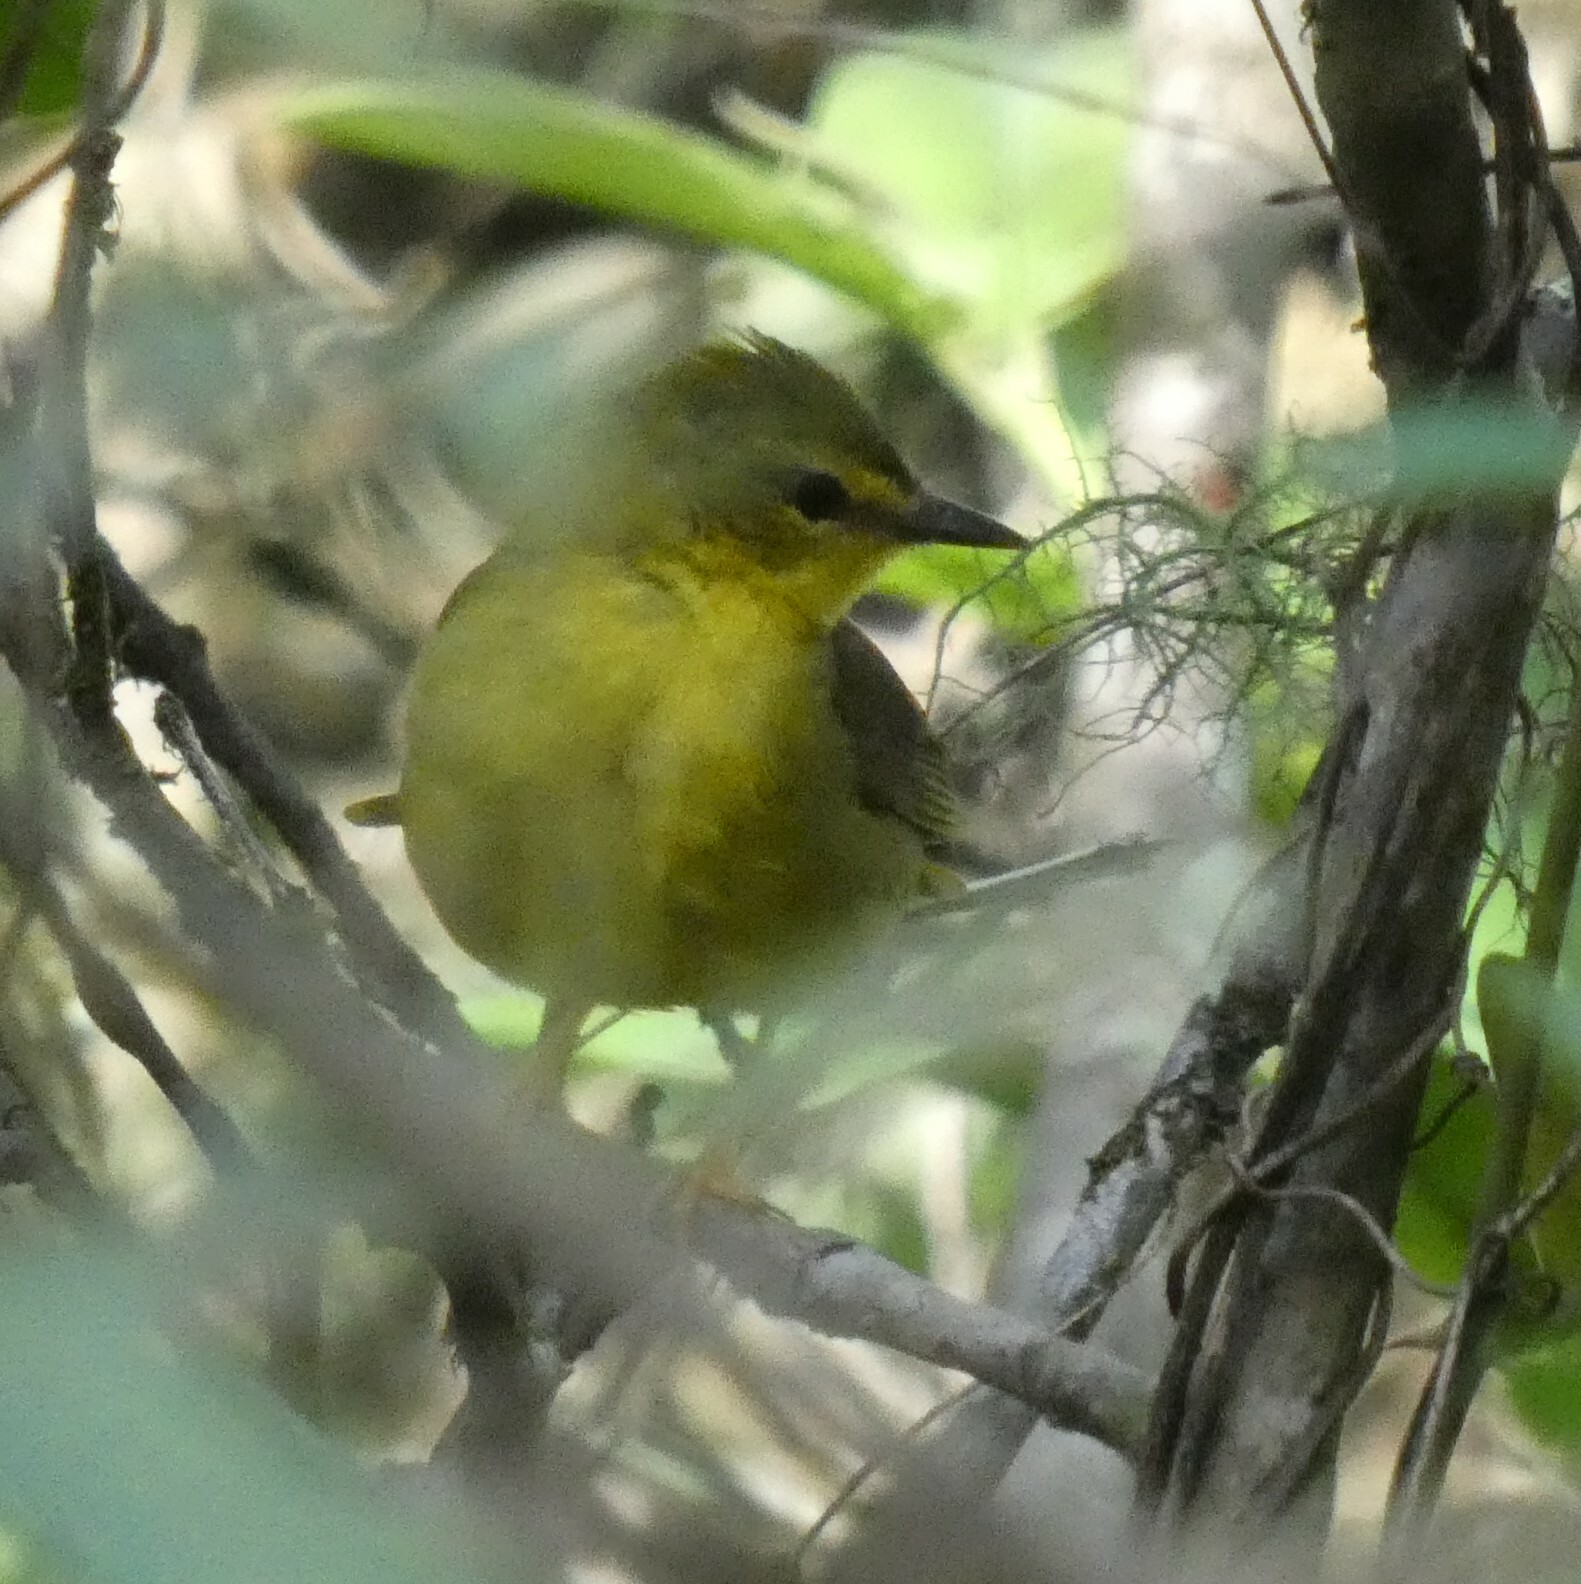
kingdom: Animalia
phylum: Chordata
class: Aves
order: Passeriformes
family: Parulidae
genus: Myiothlypis
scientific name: Myiothlypis flaveola
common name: Flavescent warbler
